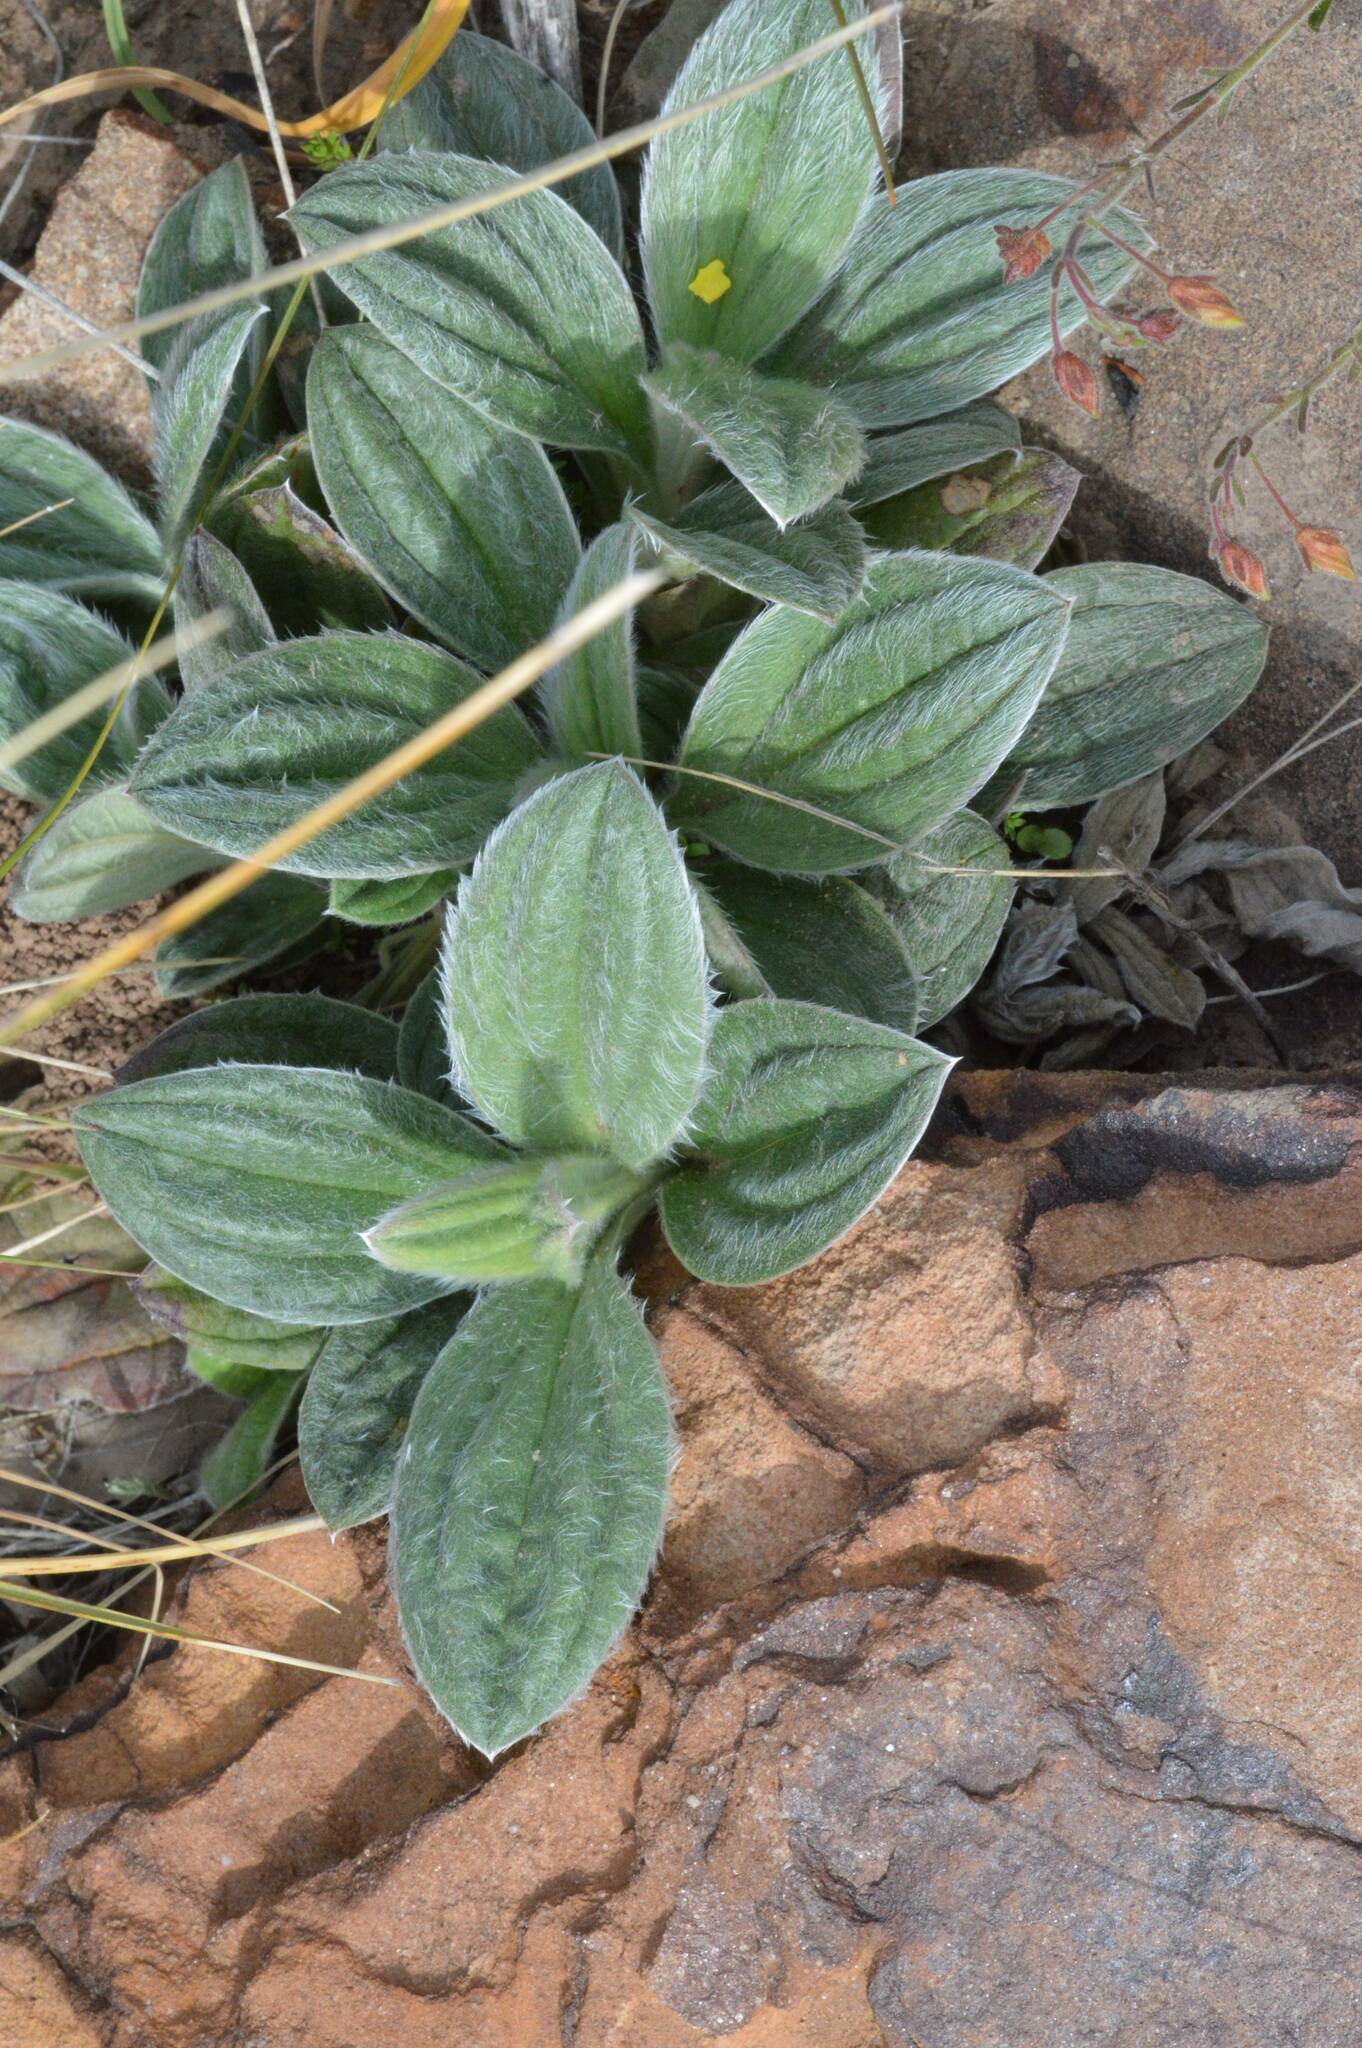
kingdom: Plantae
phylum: Tracheophyta
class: Magnoliopsida
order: Malvales
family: Cistaceae
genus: Tuberaria
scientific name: Tuberaria lignosa
